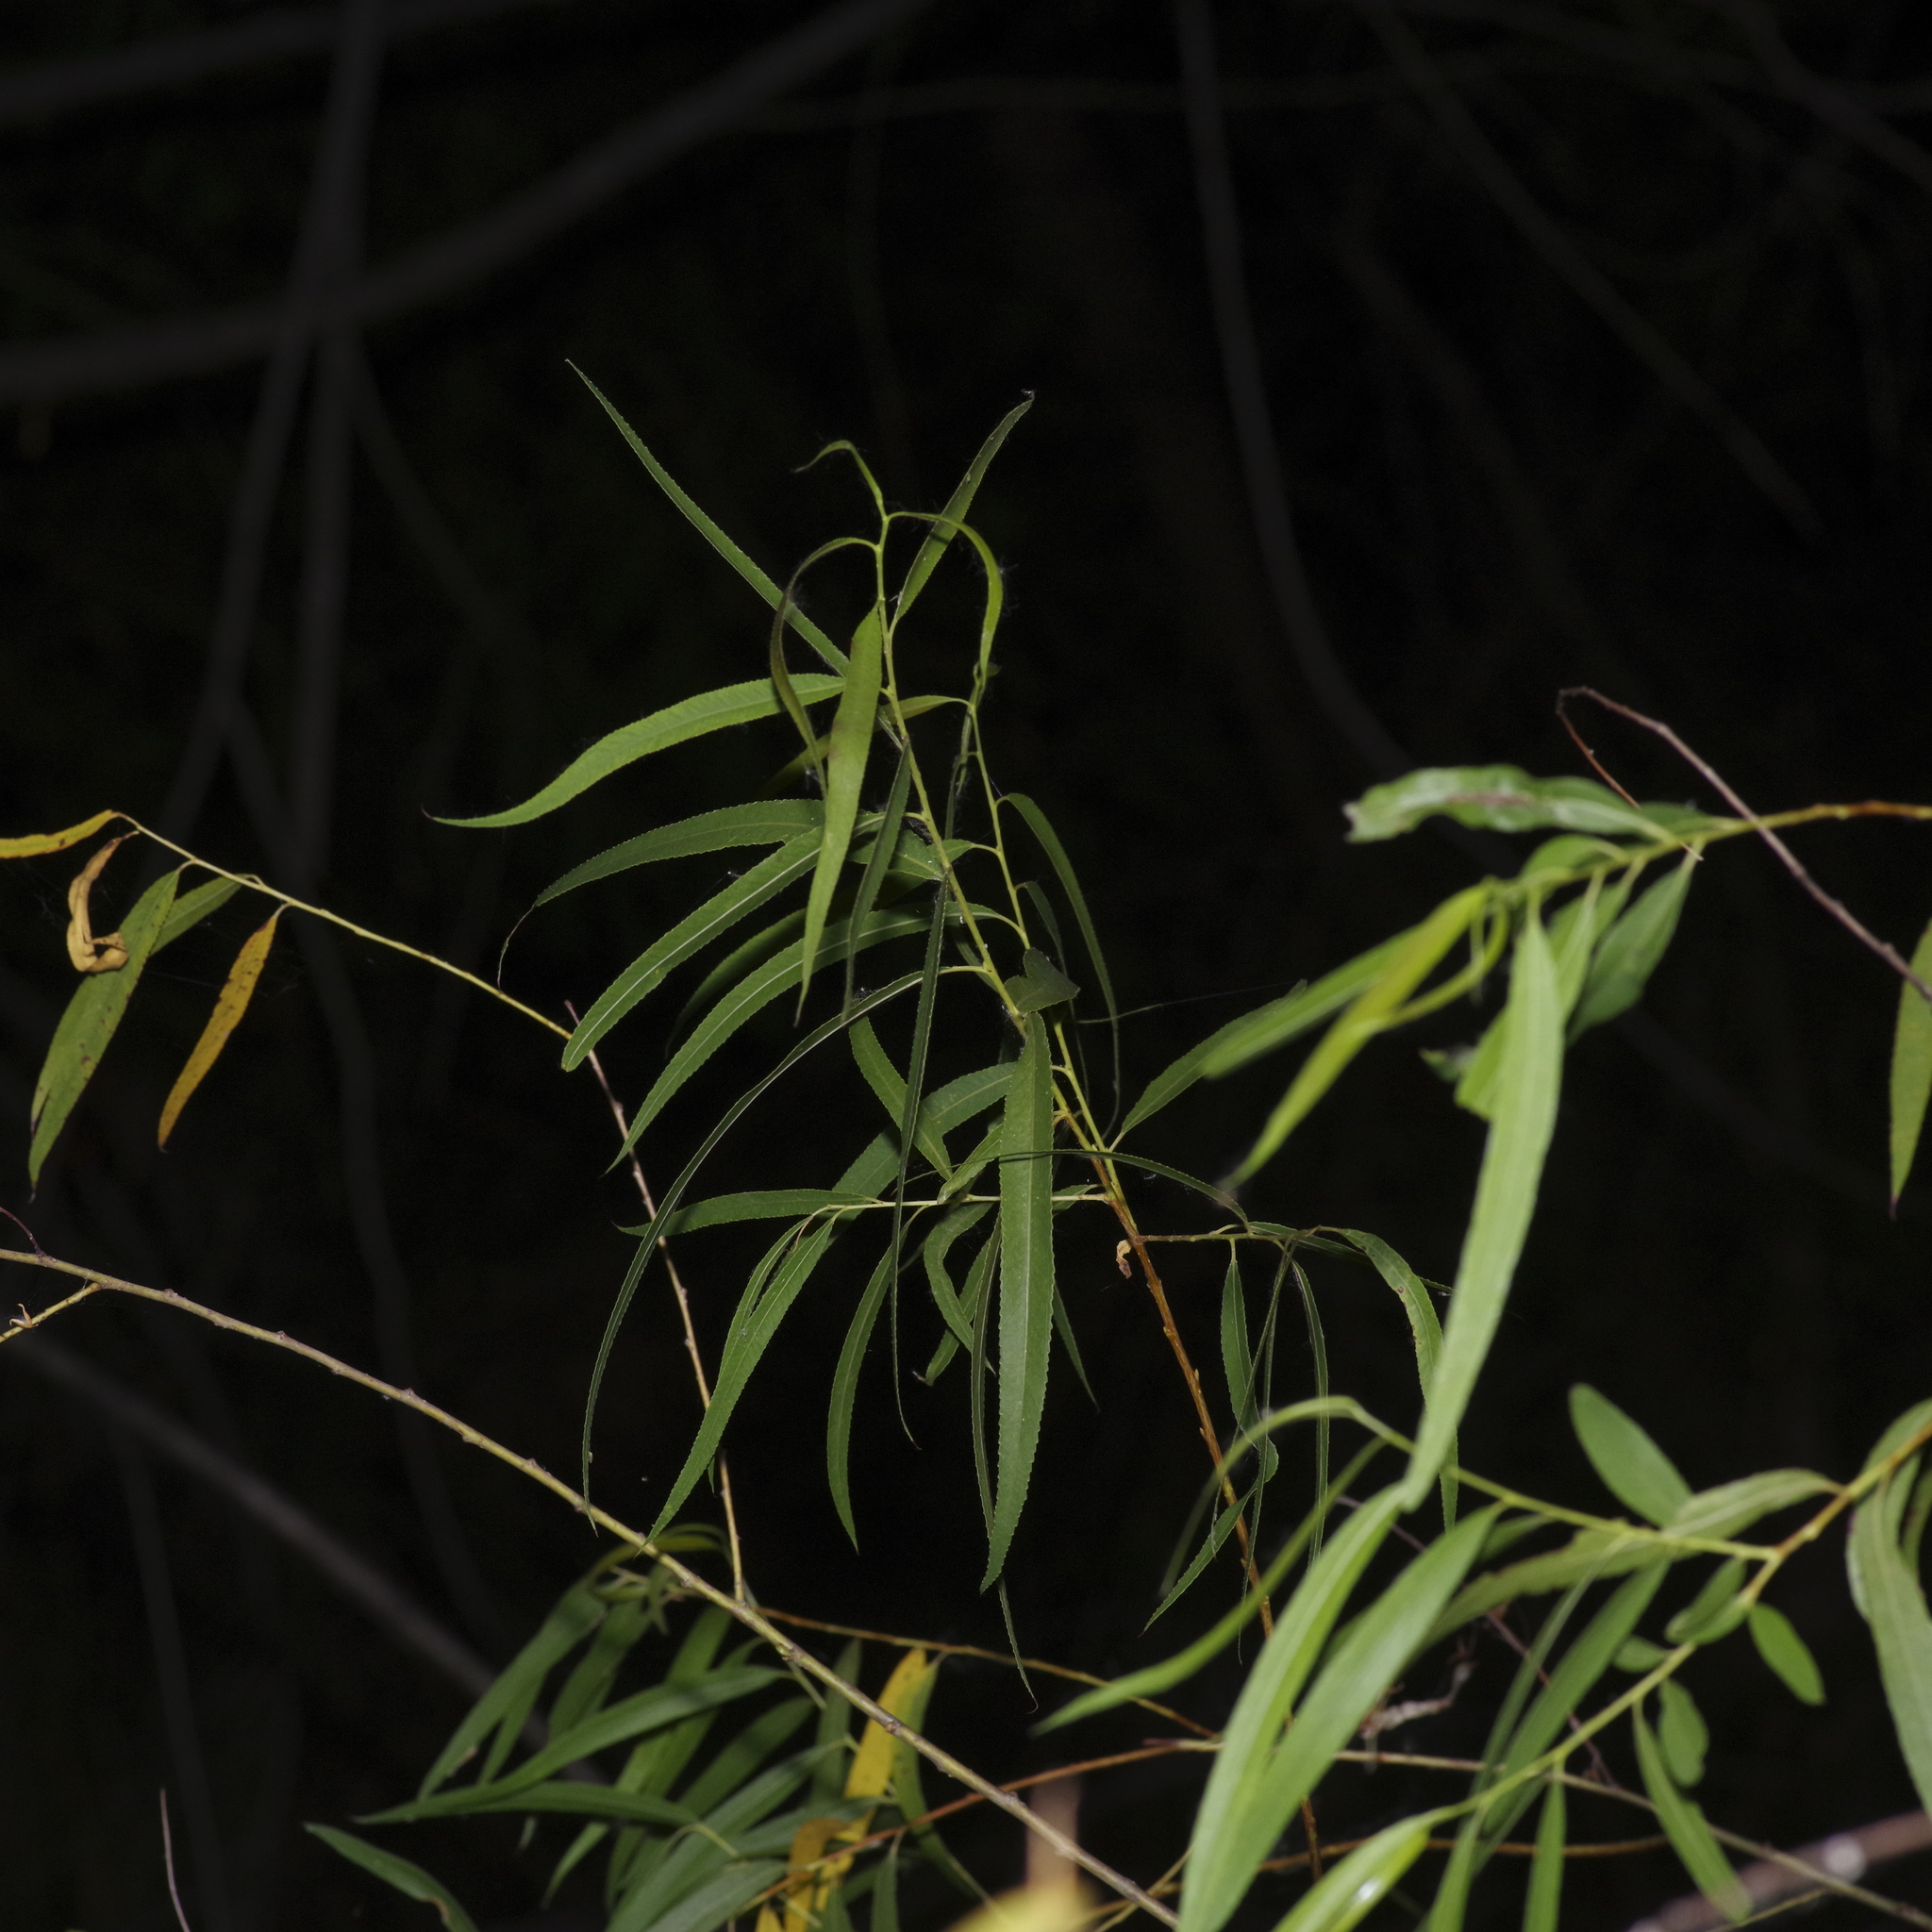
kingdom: Plantae
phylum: Tracheophyta
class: Magnoliopsida
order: Malpighiales
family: Salicaceae
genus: Salix
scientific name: Salix nigra
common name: Black willow
